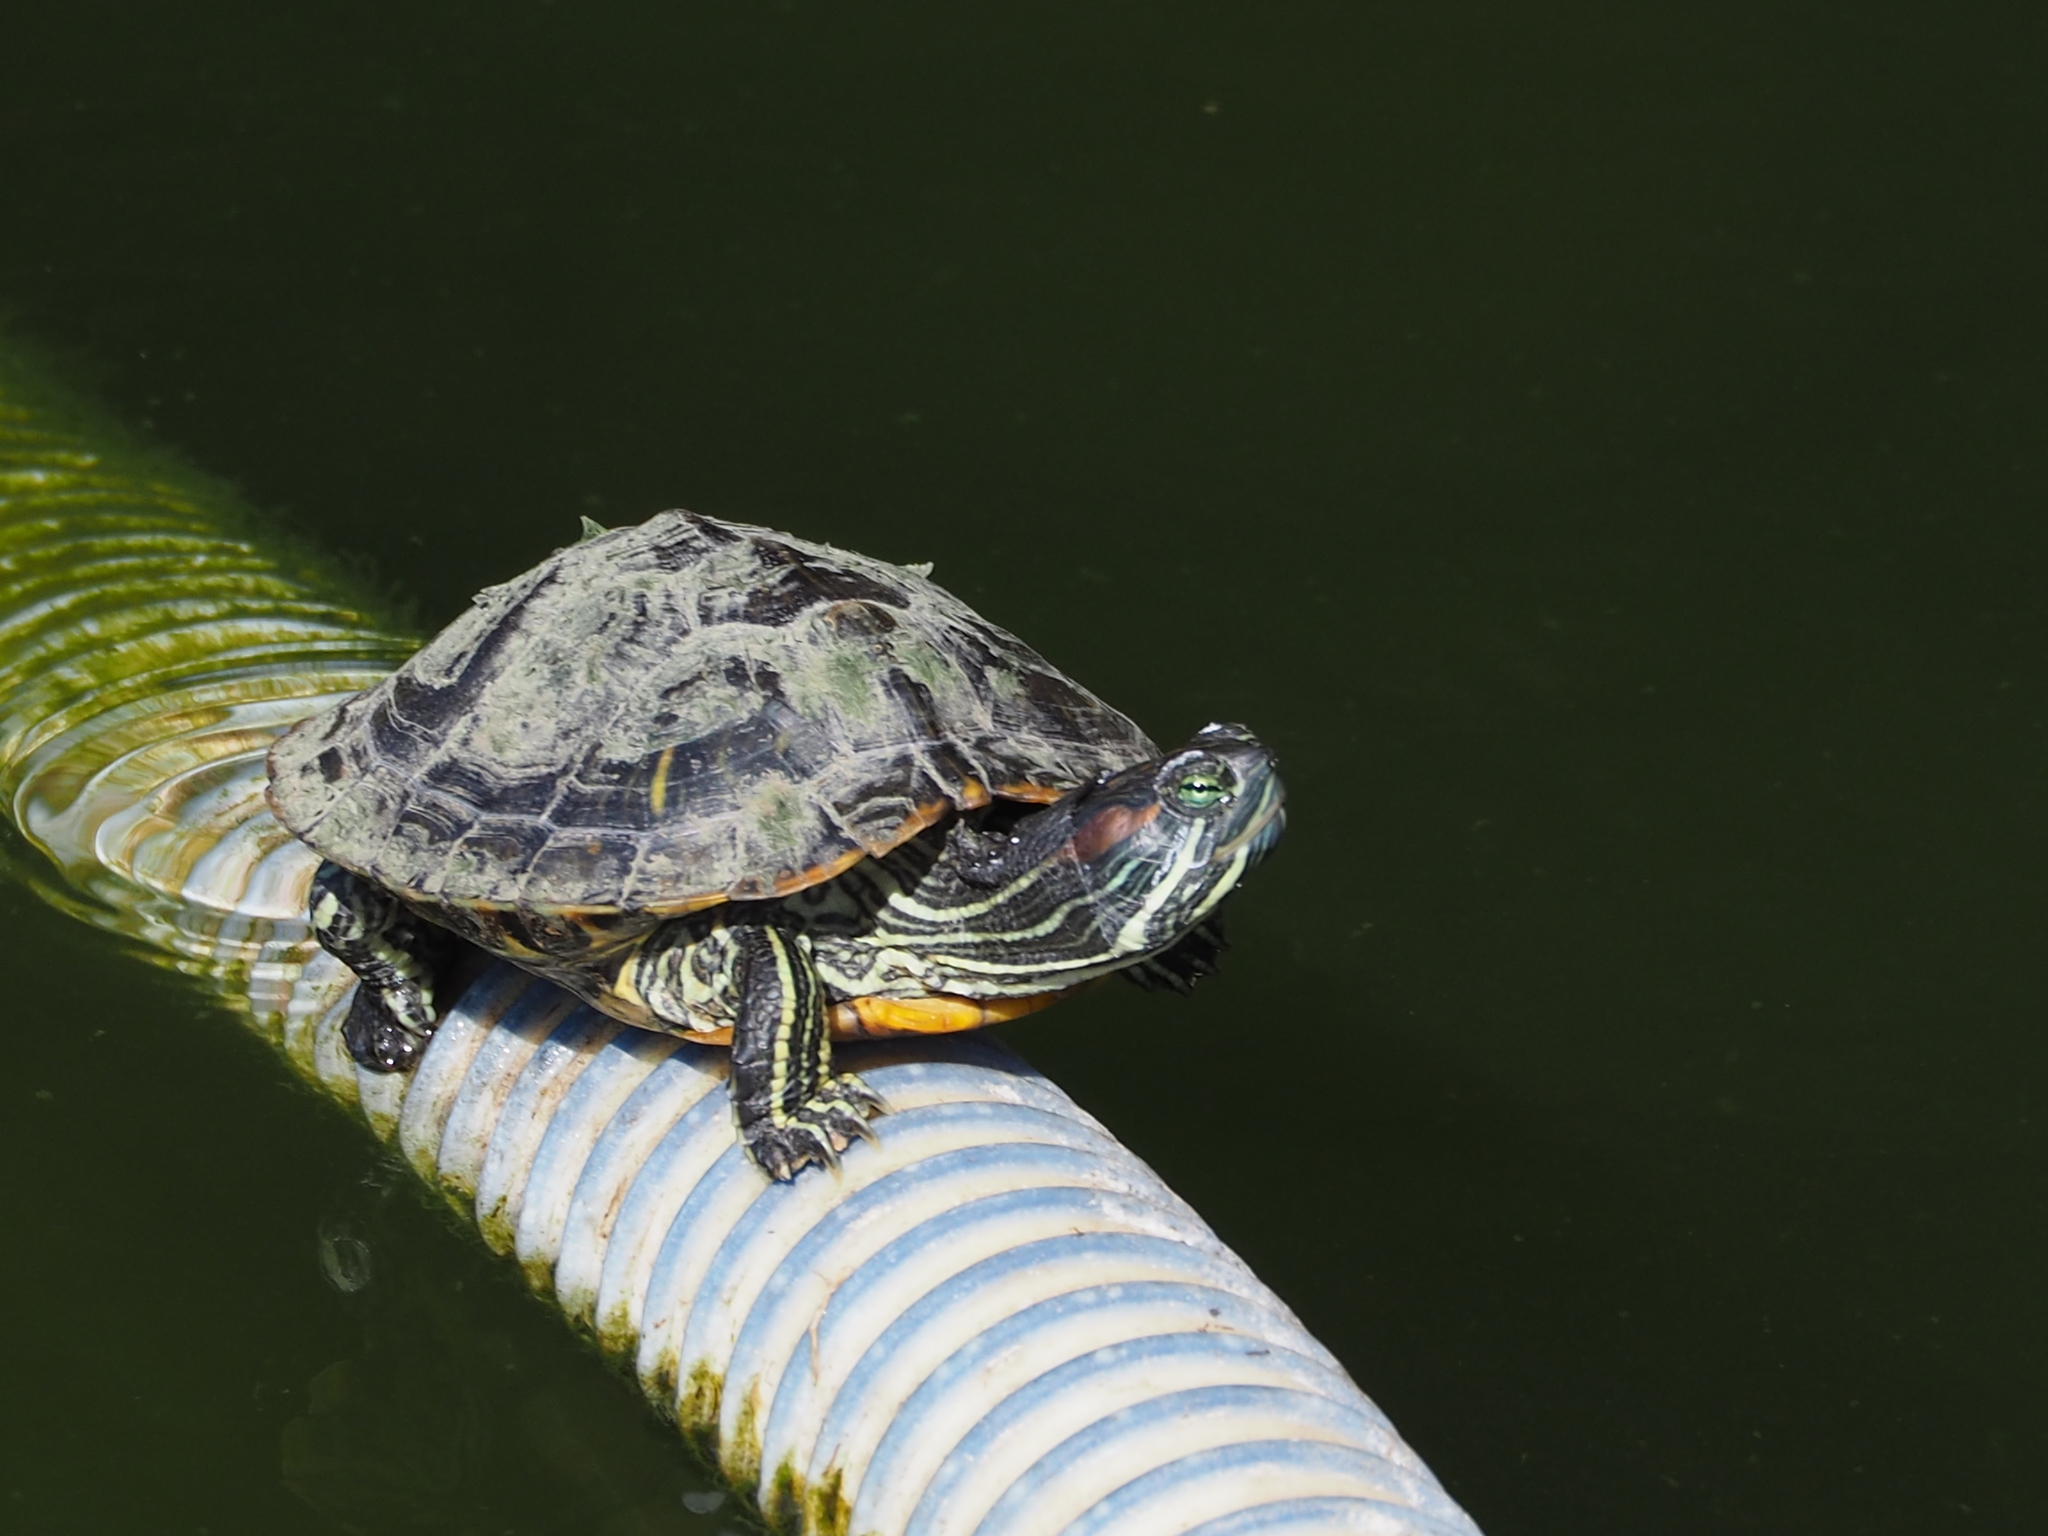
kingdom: Animalia
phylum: Chordata
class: Testudines
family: Emydidae
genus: Trachemys
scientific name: Trachemys scripta
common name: Slider
